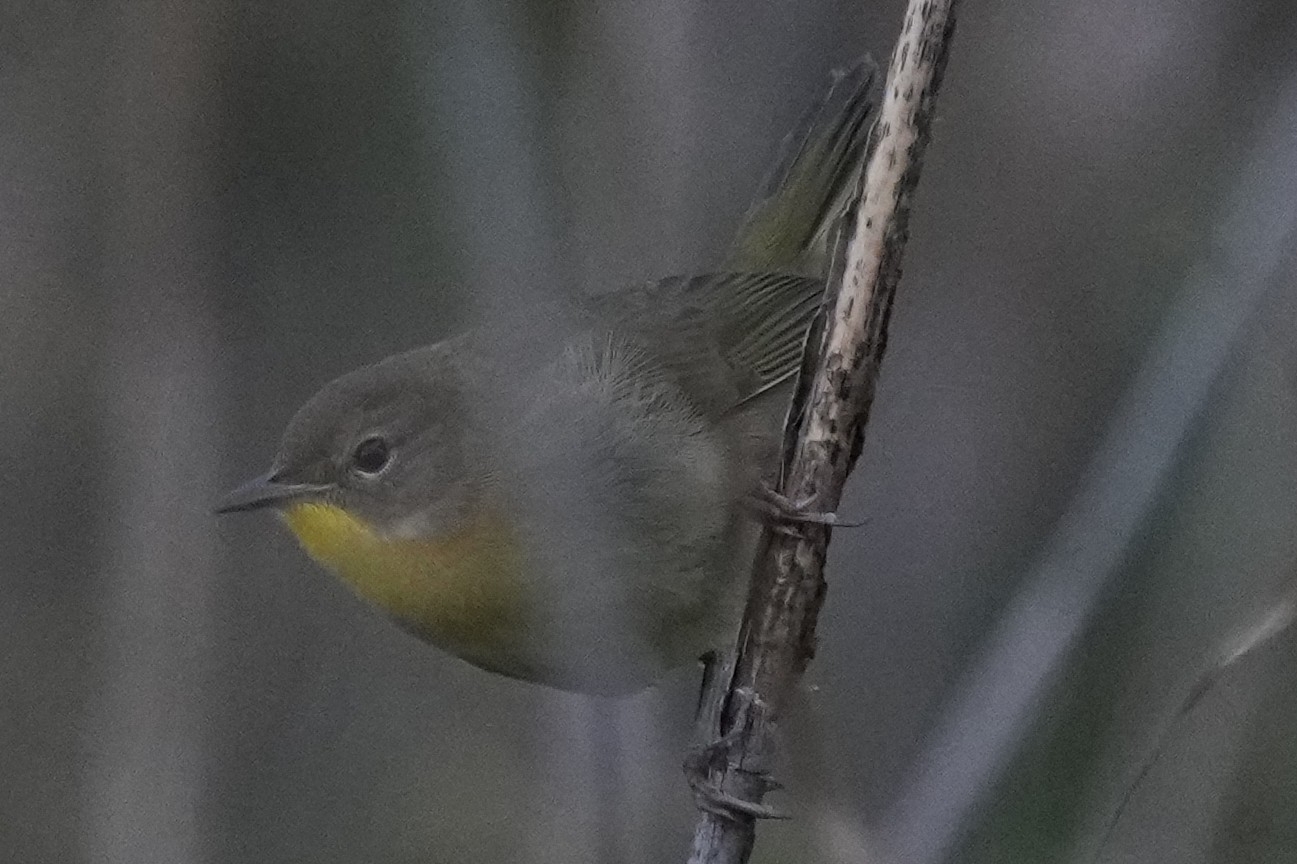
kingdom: Animalia
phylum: Chordata
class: Aves
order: Passeriformes
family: Parulidae
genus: Geothlypis
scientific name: Geothlypis trichas
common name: Common yellowthroat
